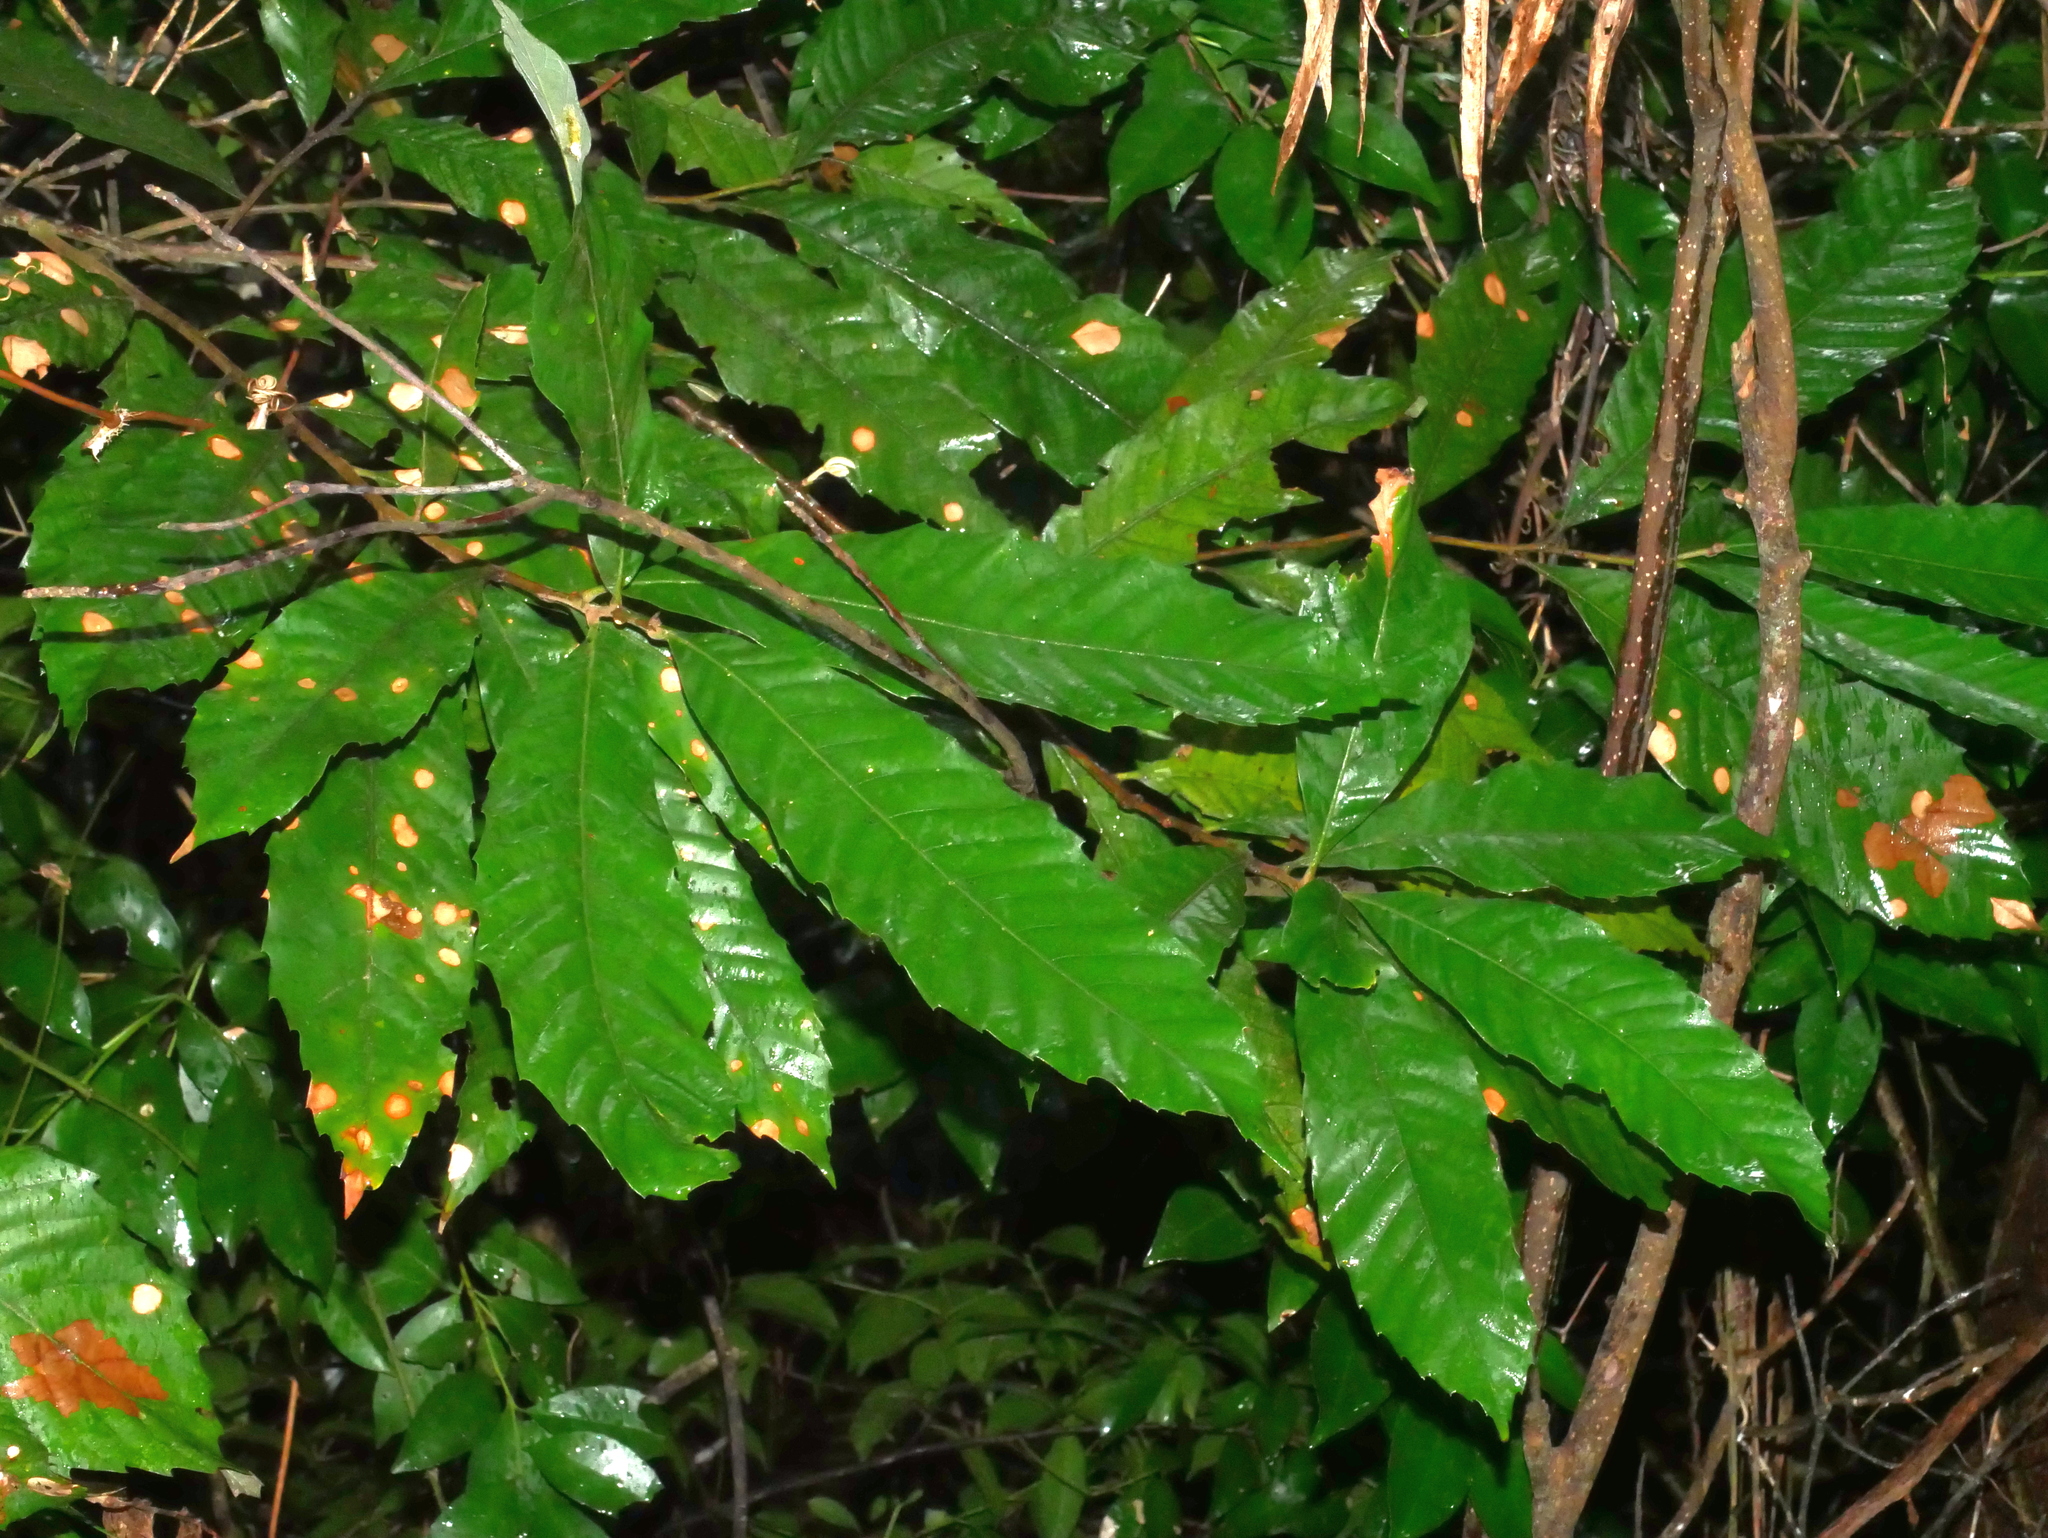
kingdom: Plantae
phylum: Tracheophyta
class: Magnoliopsida
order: Fagales
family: Fagaceae
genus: Castanopsis
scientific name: Castanopsis indica
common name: Indian-chestnut
